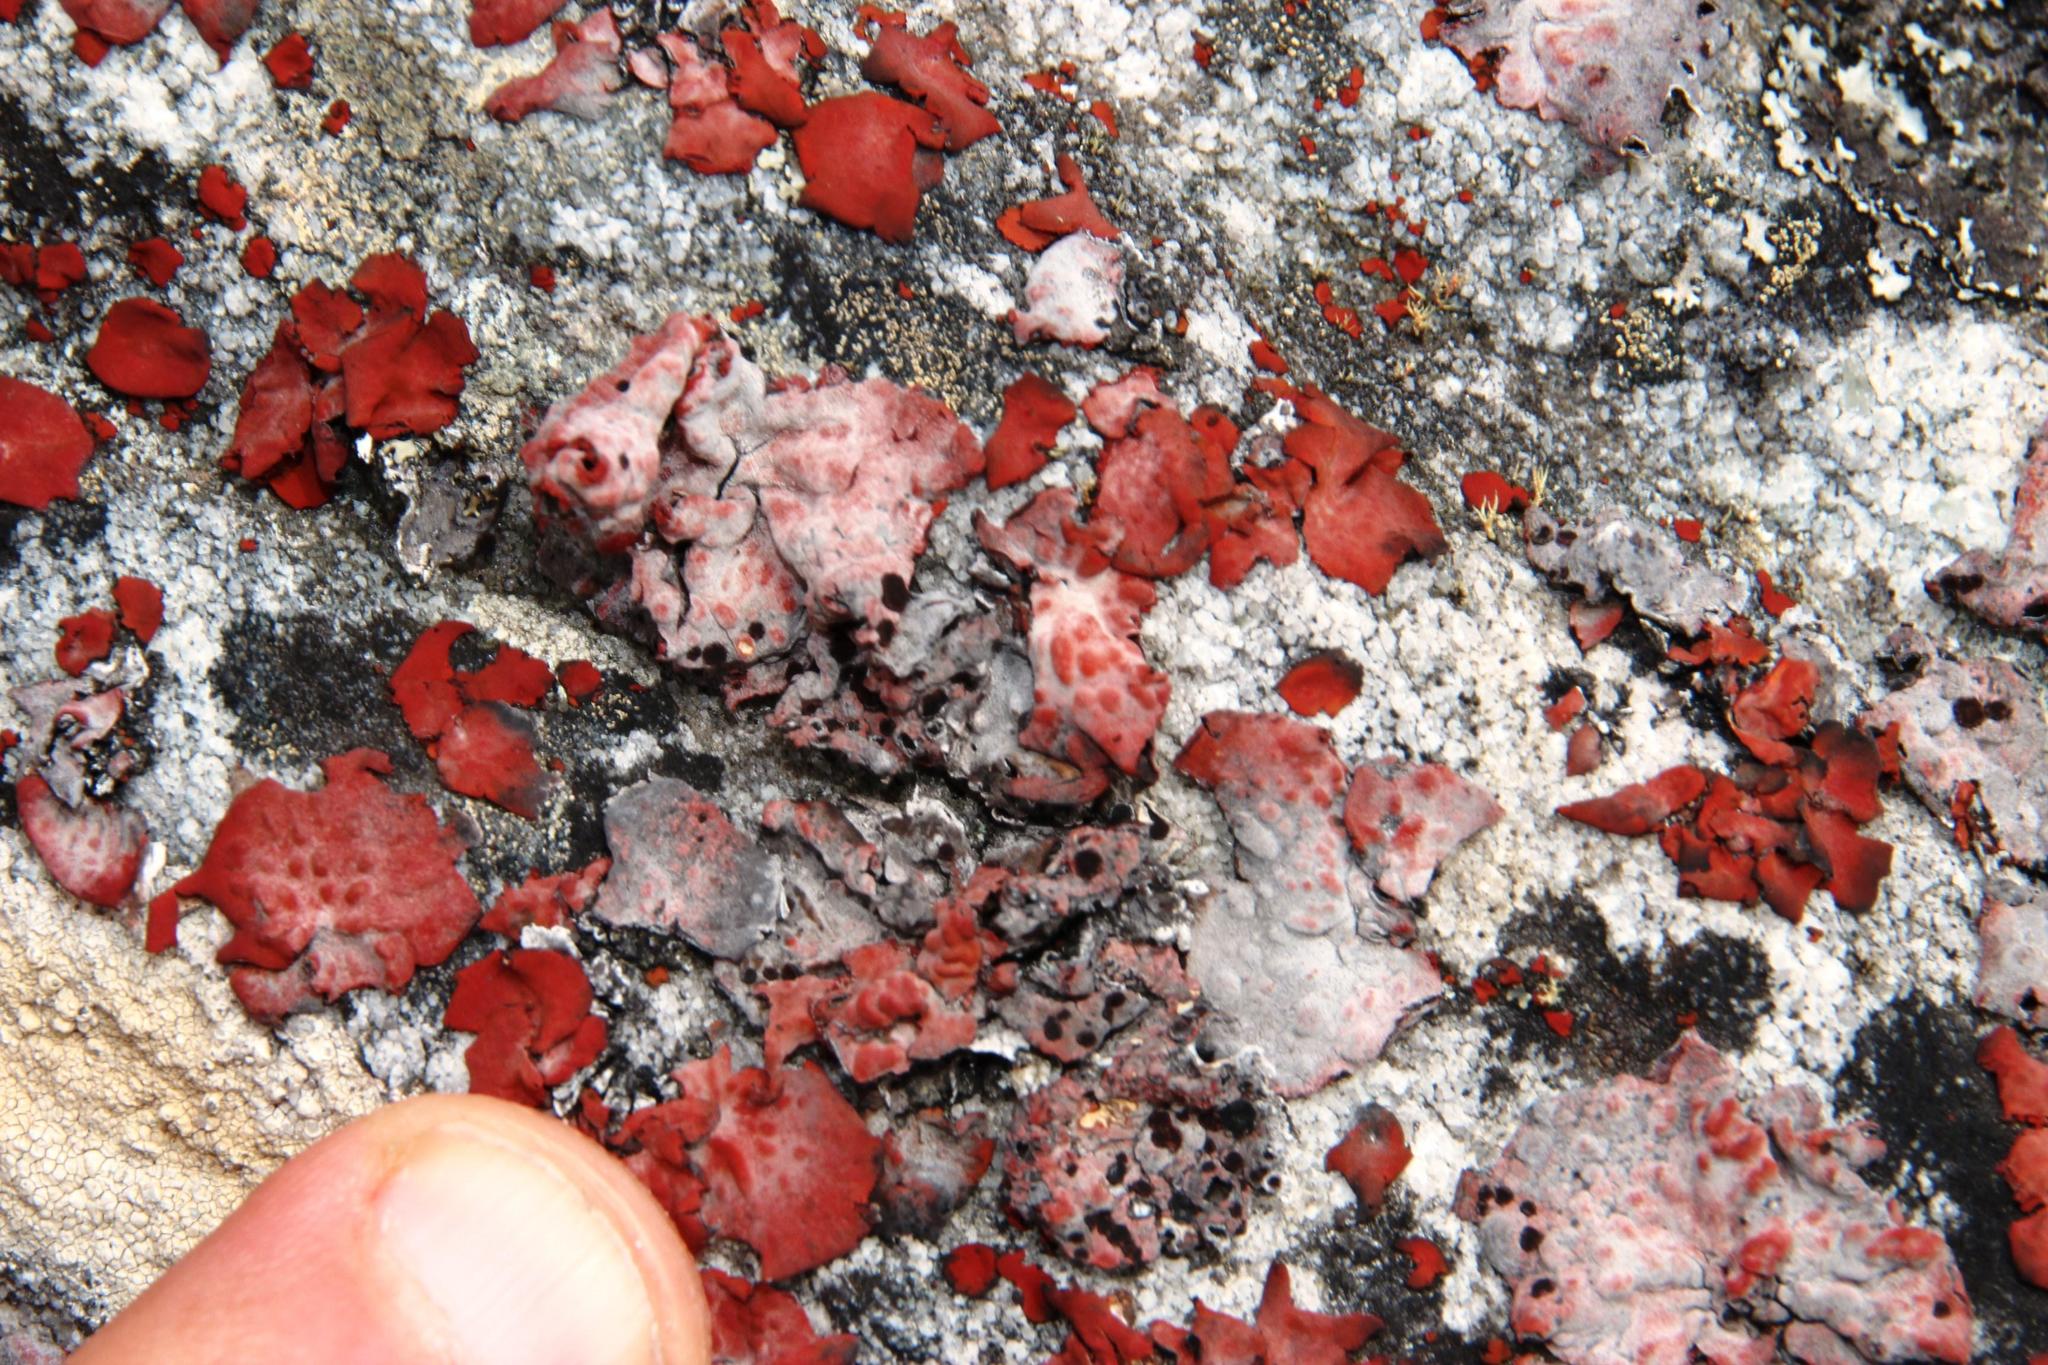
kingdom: Fungi
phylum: Ascomycota
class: Lecanoromycetes
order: Umbilicariales
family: Umbilicariaceae
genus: Lasallia
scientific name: Lasallia rubiginosa
